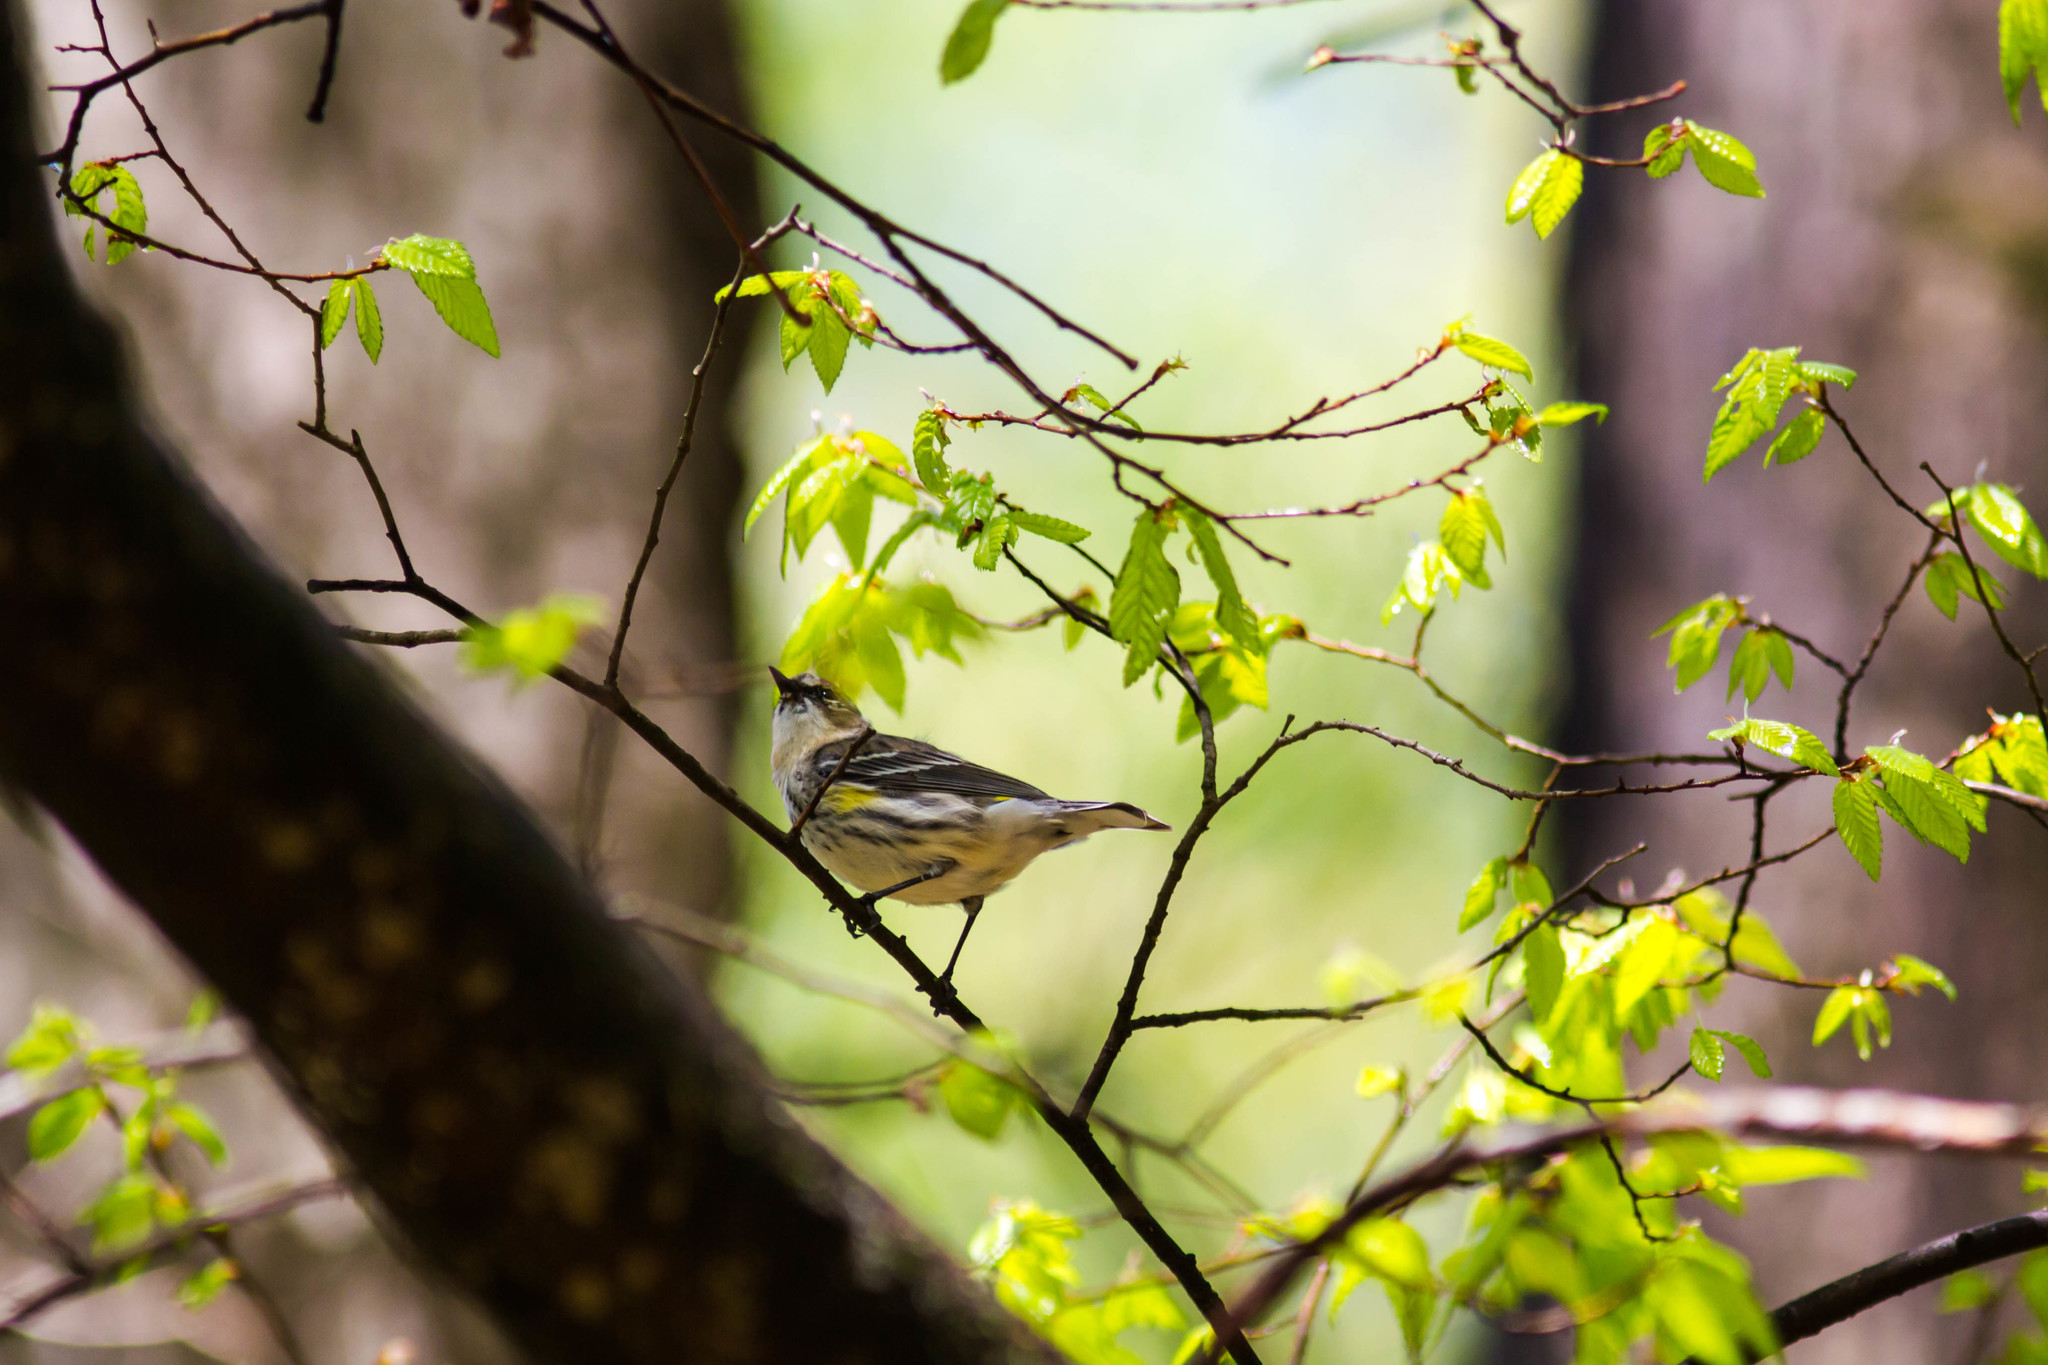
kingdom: Animalia
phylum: Chordata
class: Aves
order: Passeriformes
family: Parulidae
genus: Setophaga
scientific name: Setophaga coronata
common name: Myrtle warbler
